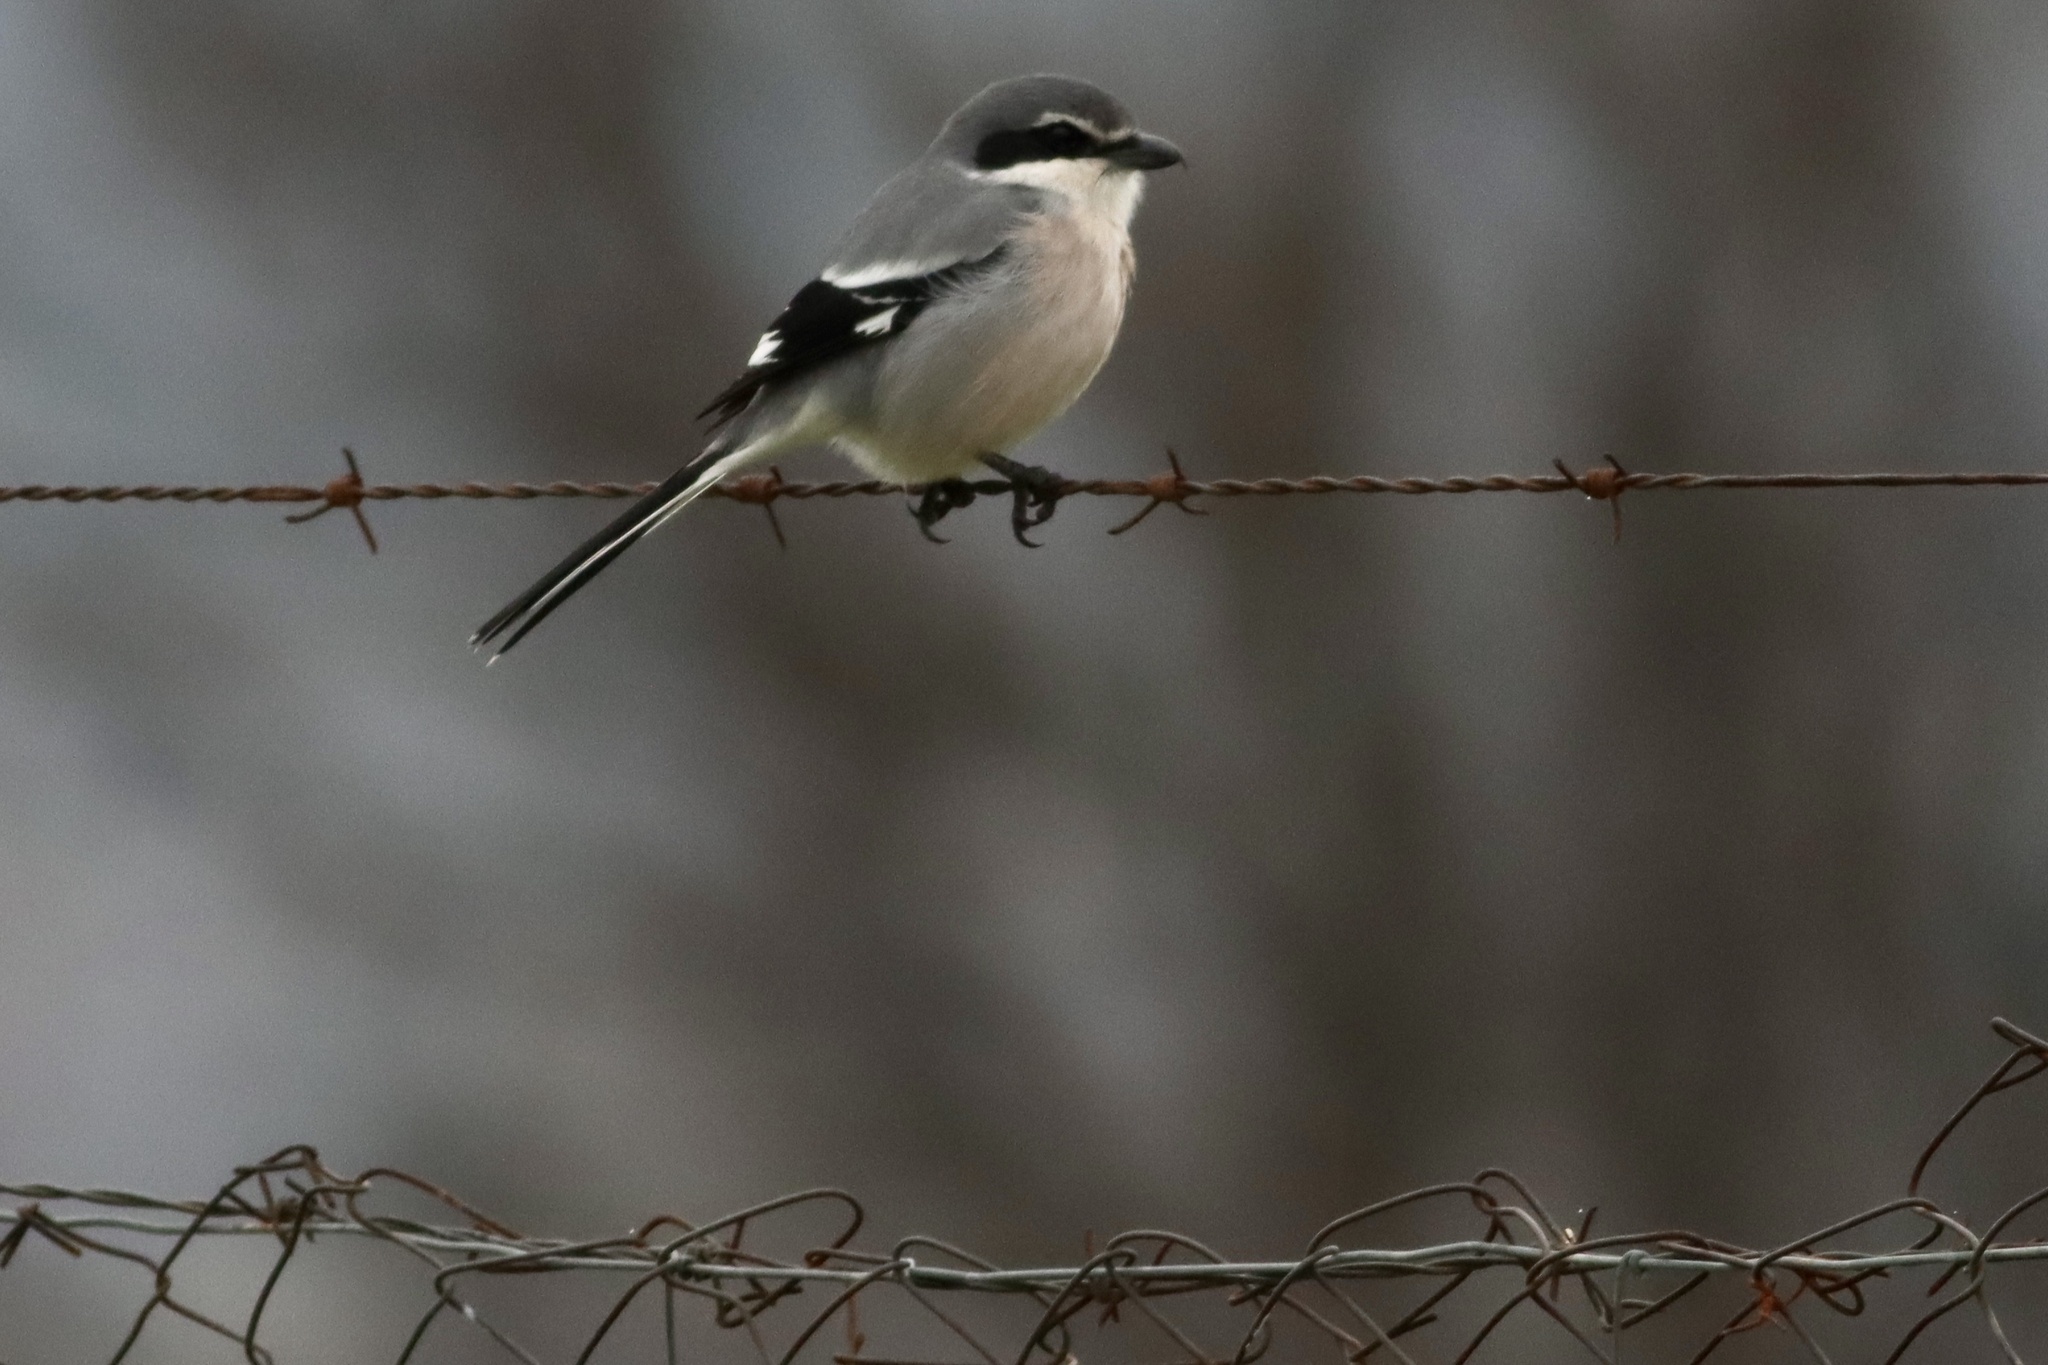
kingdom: Animalia
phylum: Chordata
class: Aves
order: Passeriformes
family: Laniidae
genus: Lanius
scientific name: Lanius meridionalis
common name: Iberian grey shrike
